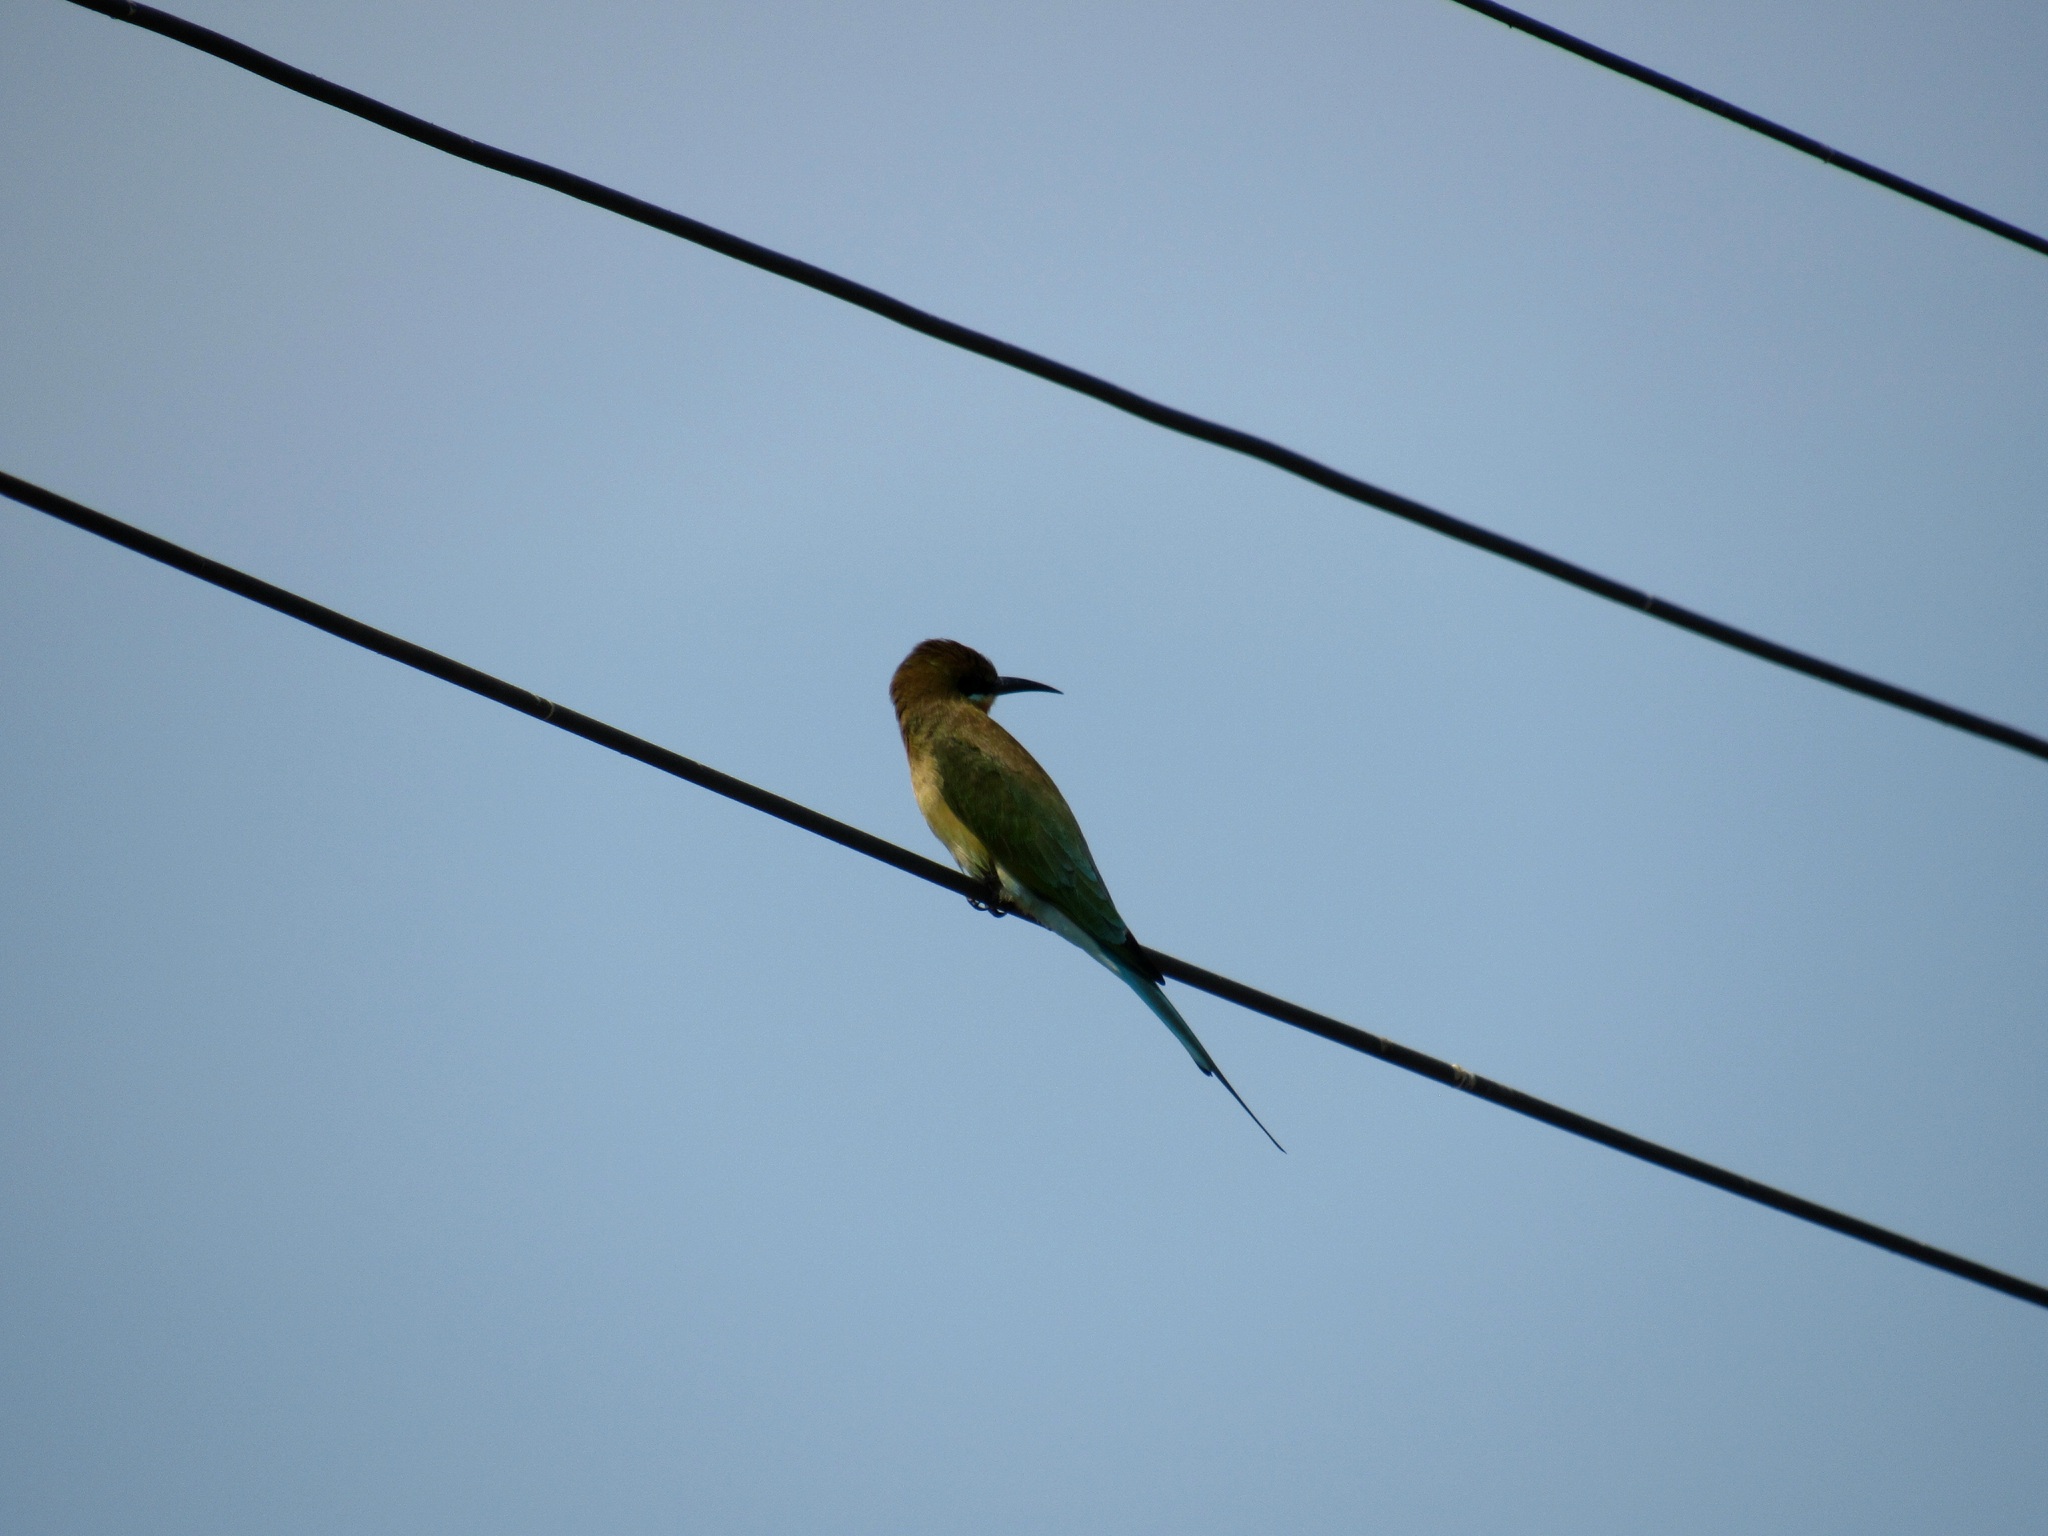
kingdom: Animalia
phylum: Chordata
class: Aves
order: Coraciiformes
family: Meropidae
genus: Merops
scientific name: Merops philippinus
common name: Blue-tailed bee-eater
